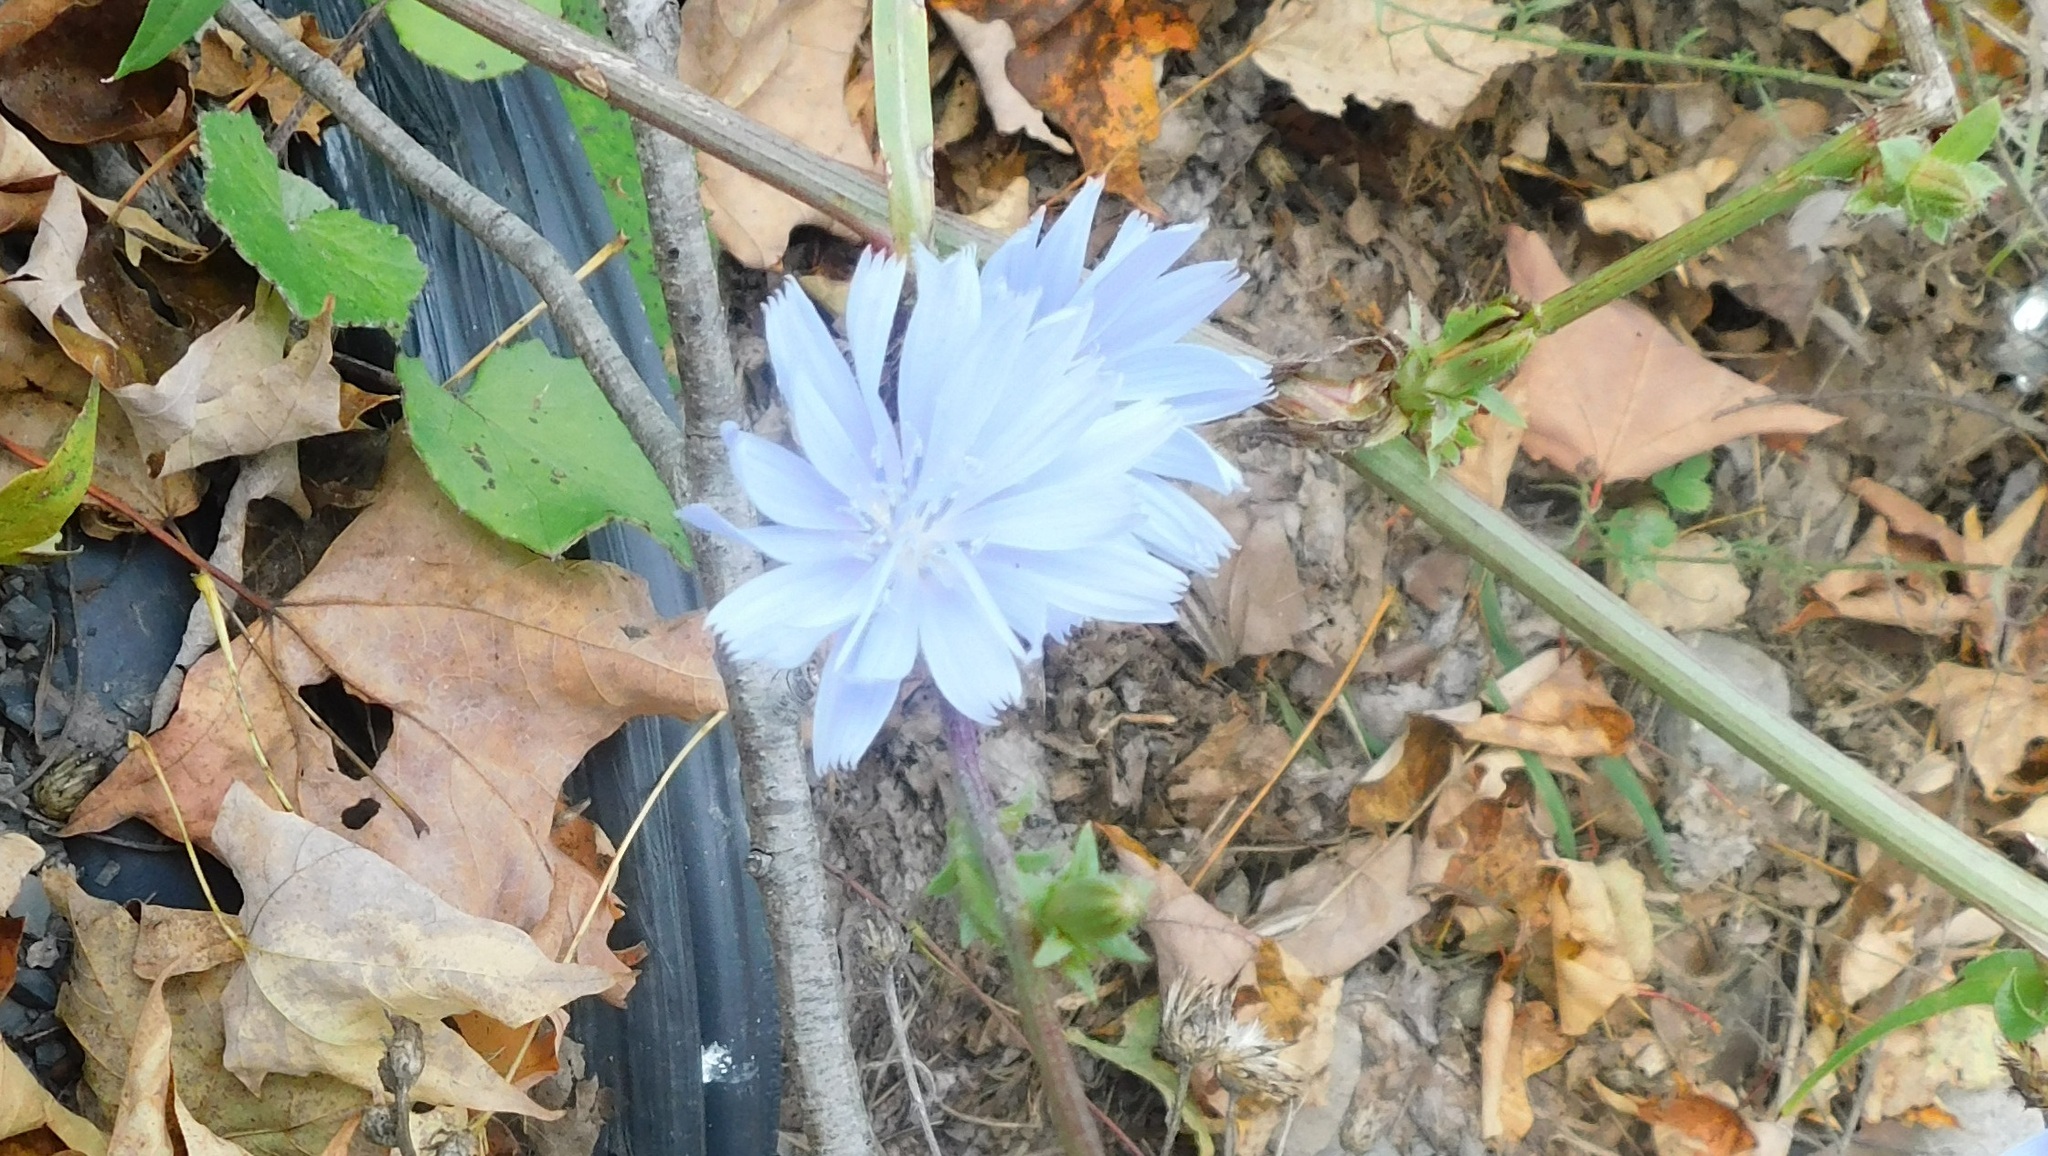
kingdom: Plantae
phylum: Tracheophyta
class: Magnoliopsida
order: Asterales
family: Asteraceae
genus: Cichorium
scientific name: Cichorium intybus
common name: Chicory
